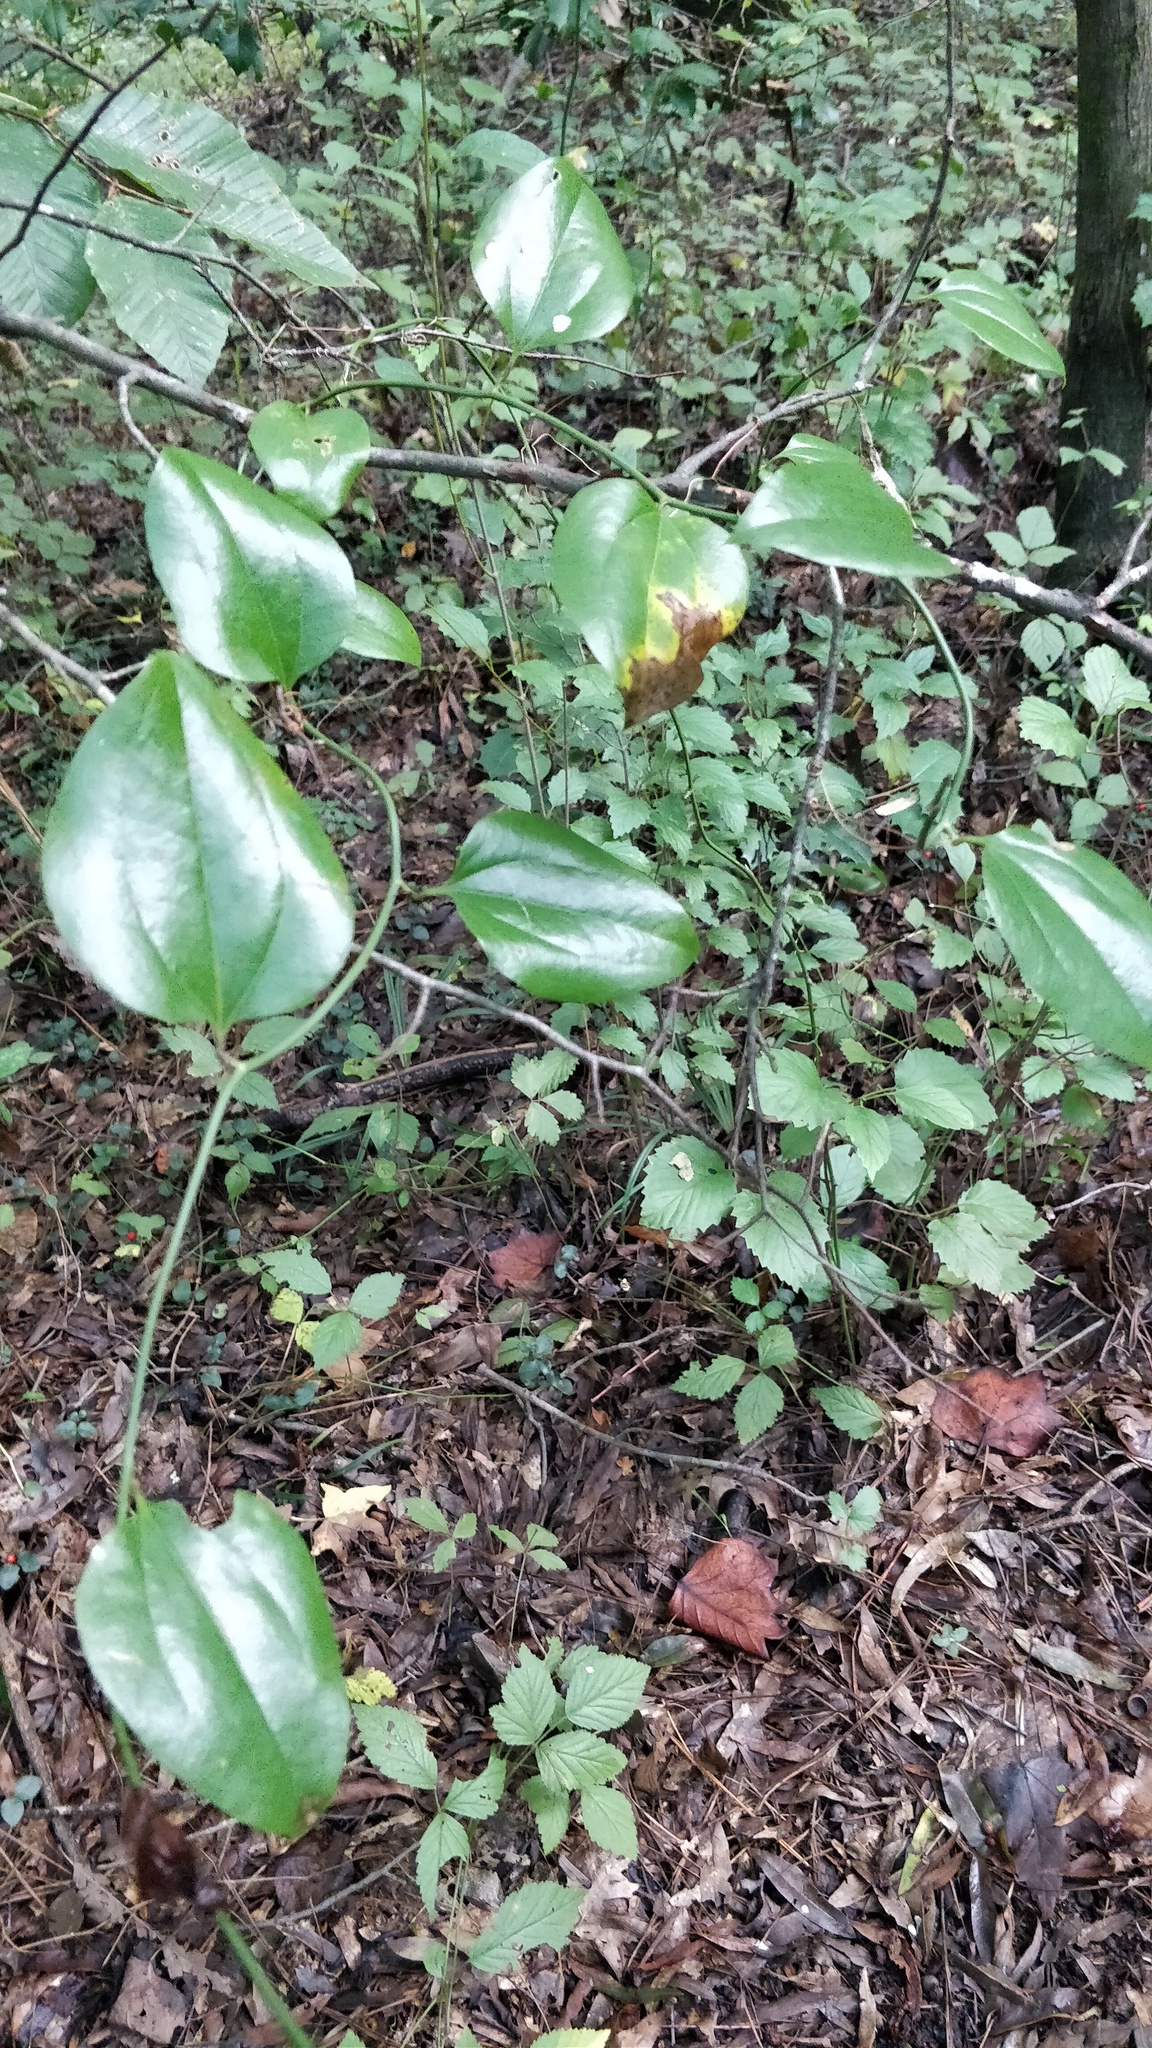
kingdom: Plantae
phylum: Tracheophyta
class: Liliopsida
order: Liliales
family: Smilacaceae
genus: Smilax
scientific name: Smilax rotundifolia
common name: Bullbriar
